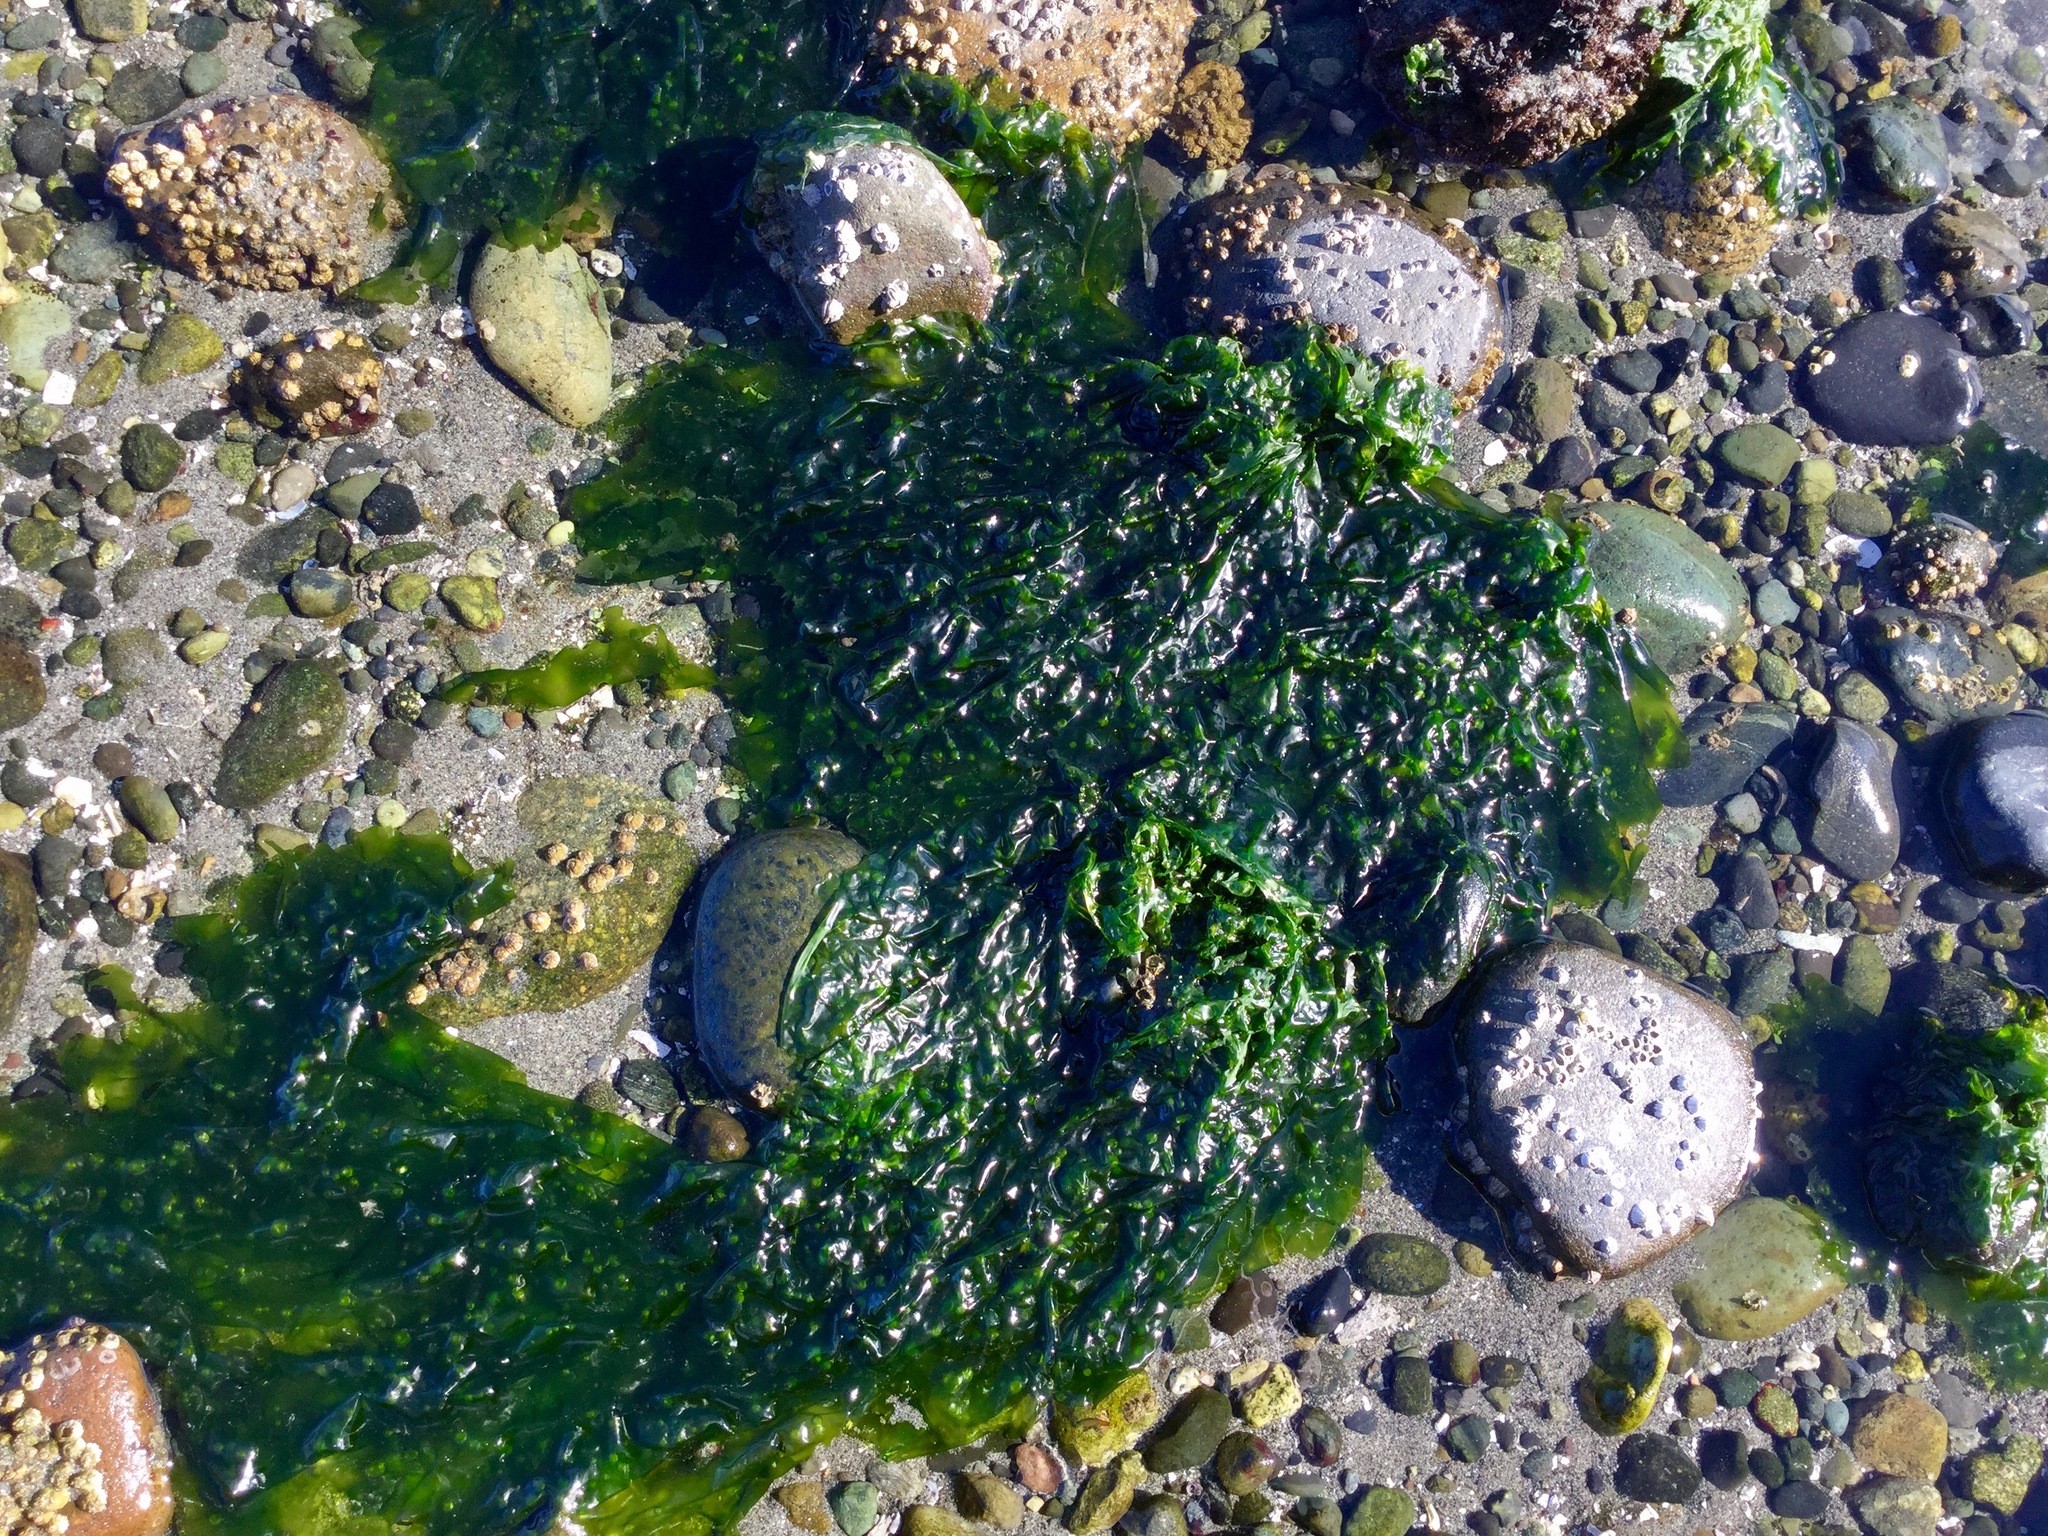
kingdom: Plantae
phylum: Chlorophyta
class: Ulvophyceae
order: Ulvales
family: Ulvaceae
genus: Ulva
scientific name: Ulva lactuca
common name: Sea lettuce
